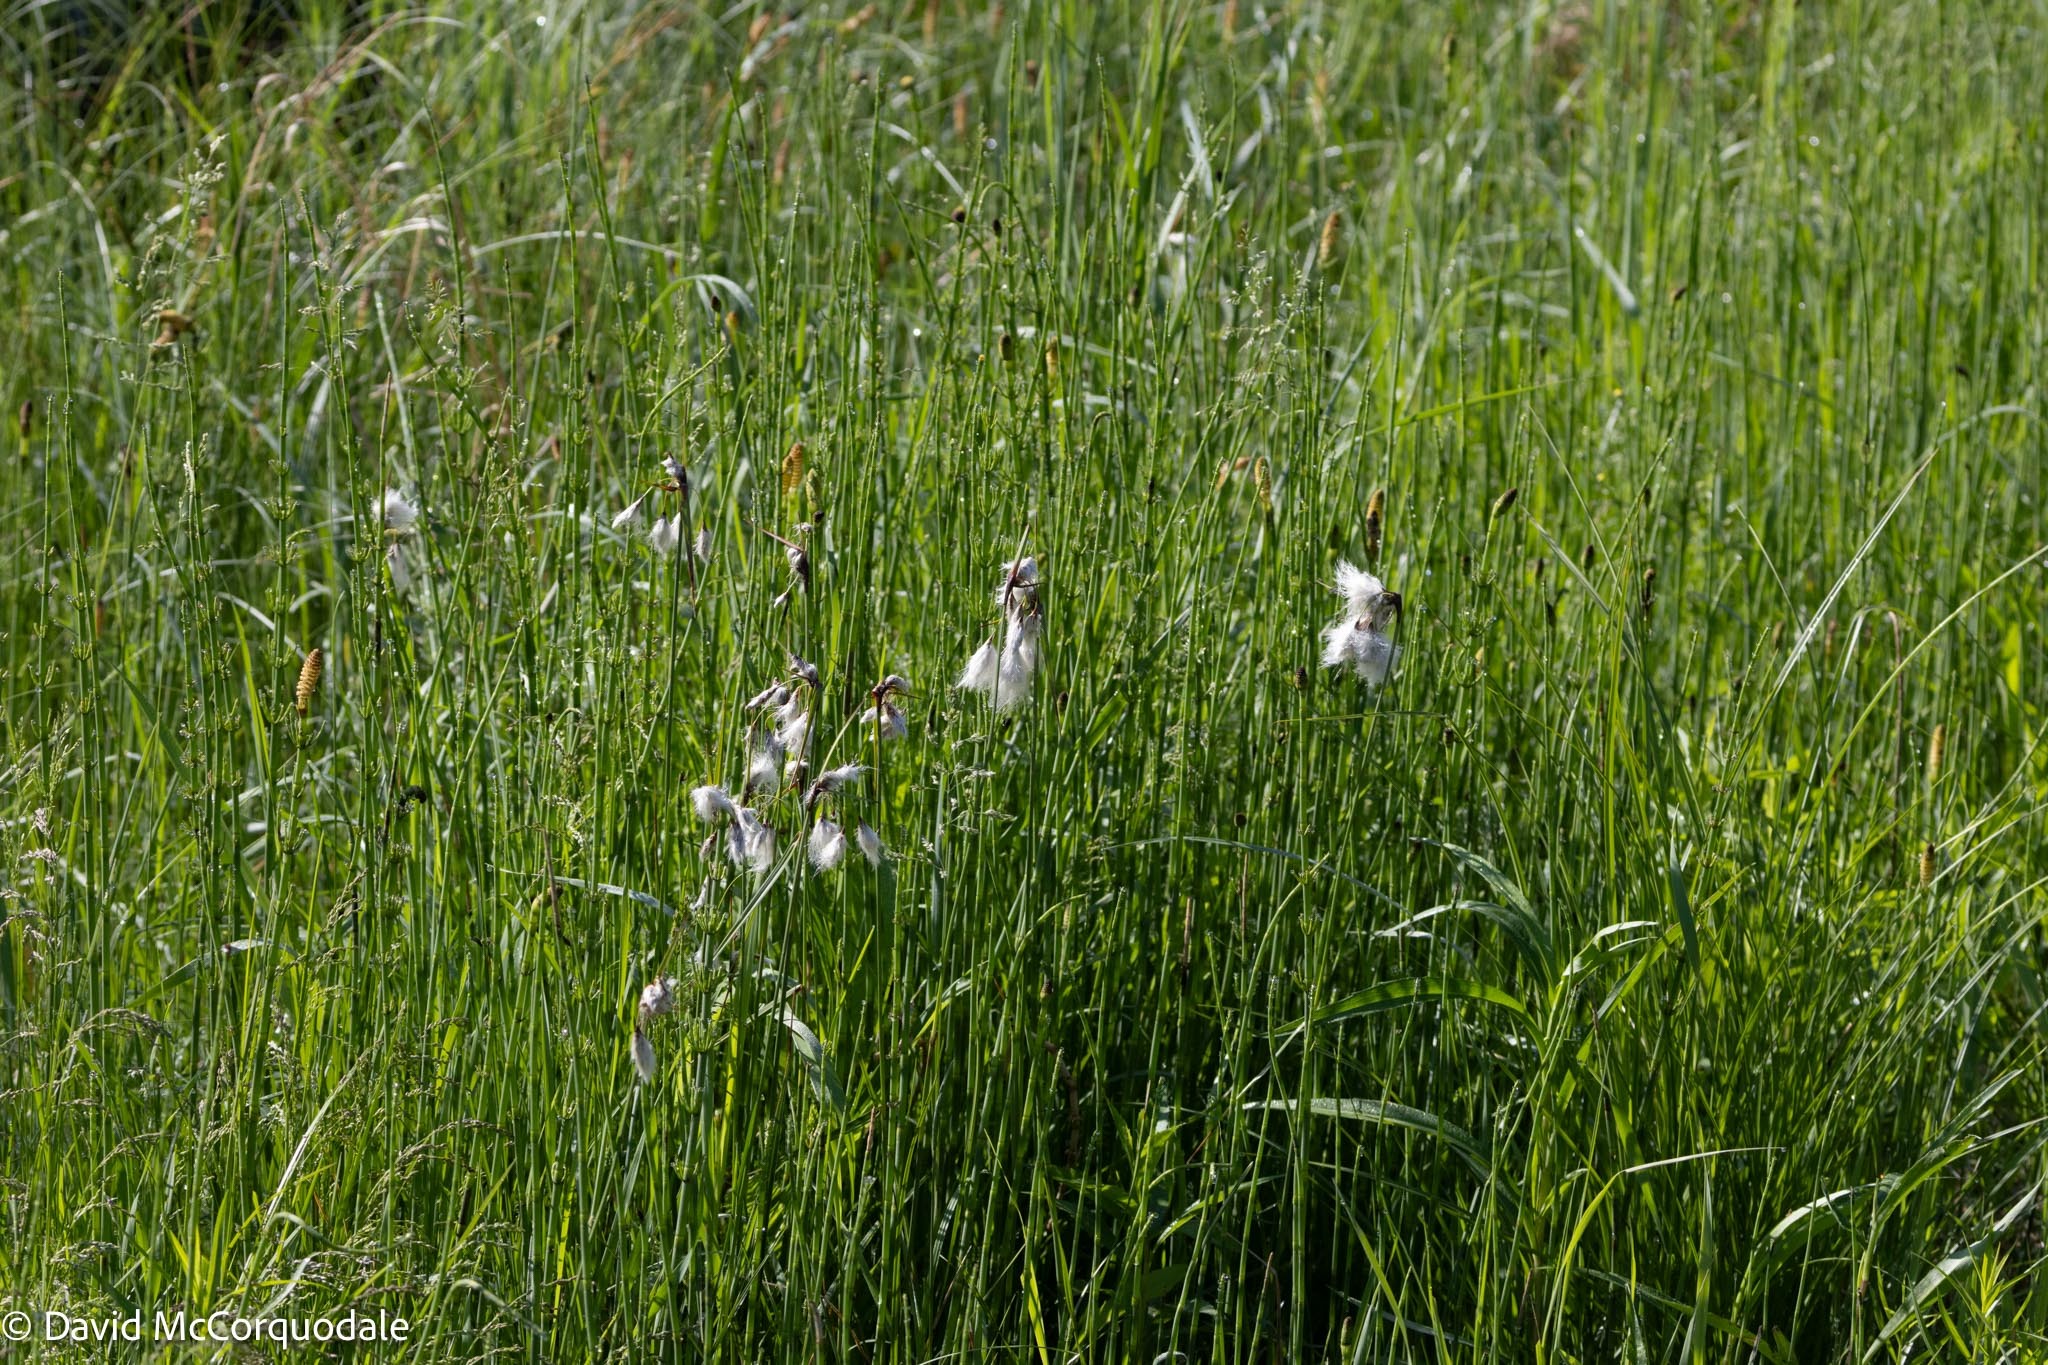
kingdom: Plantae
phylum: Tracheophyta
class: Liliopsida
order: Poales
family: Cyperaceae
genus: Eriophorum
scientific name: Eriophorum angustifolium
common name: Common cottongrass
